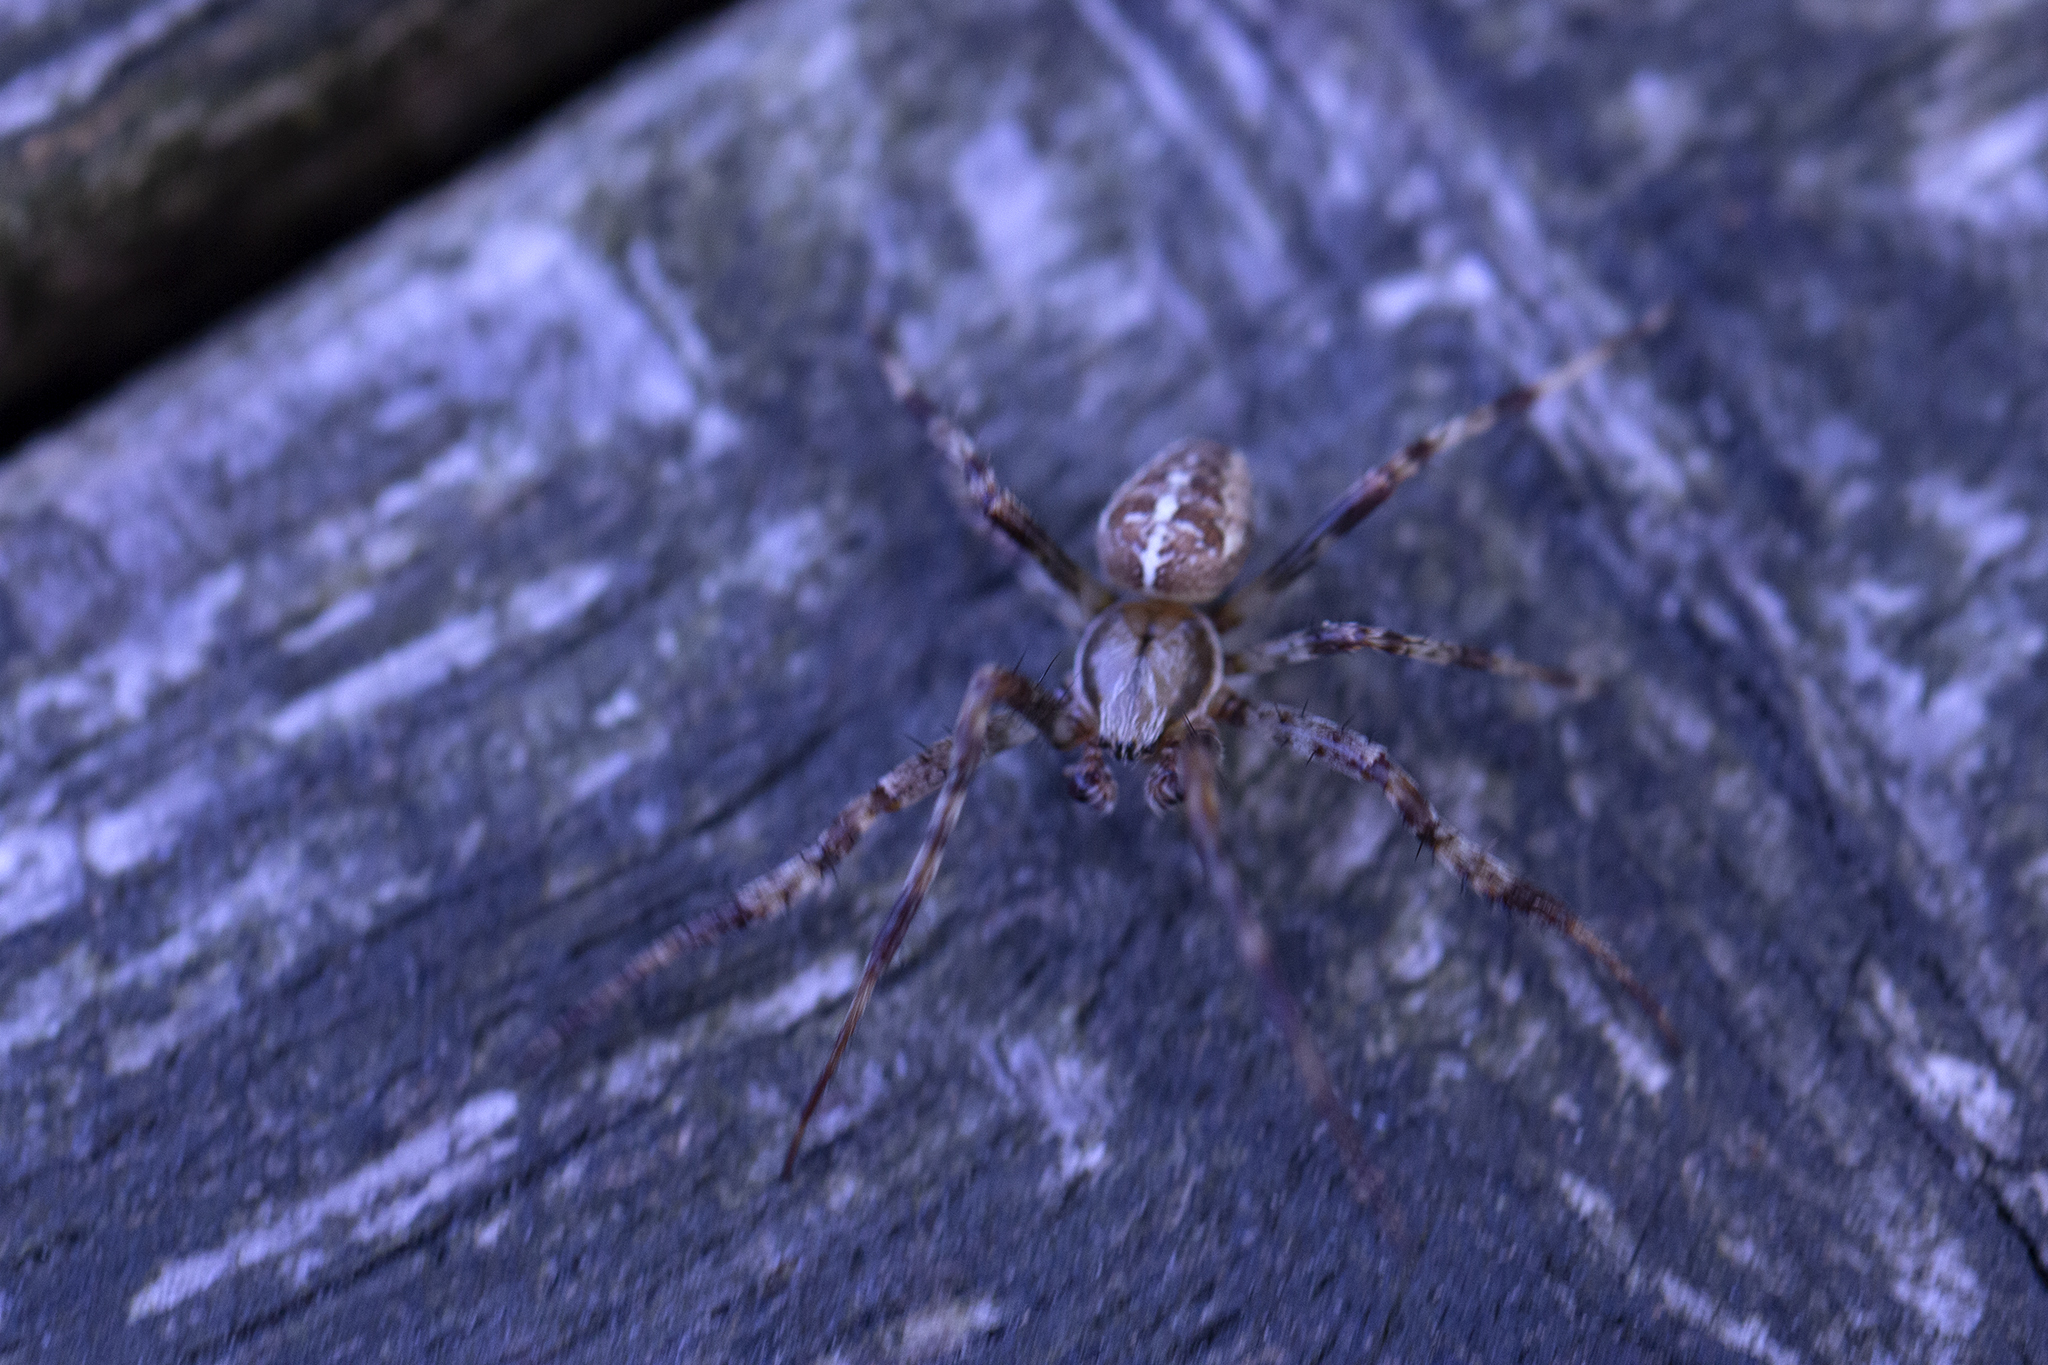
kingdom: Animalia
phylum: Arthropoda
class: Arachnida
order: Araneae
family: Araneidae
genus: Araneus
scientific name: Araneus diadematus
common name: Cross orbweaver
